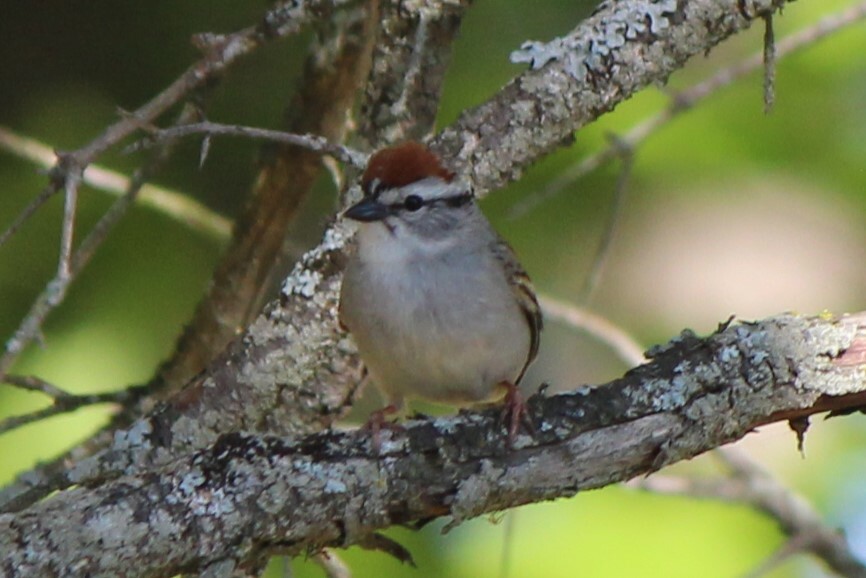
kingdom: Animalia
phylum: Chordata
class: Aves
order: Passeriformes
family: Passerellidae
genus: Spizella
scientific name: Spizella passerina
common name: Chipping sparrow
